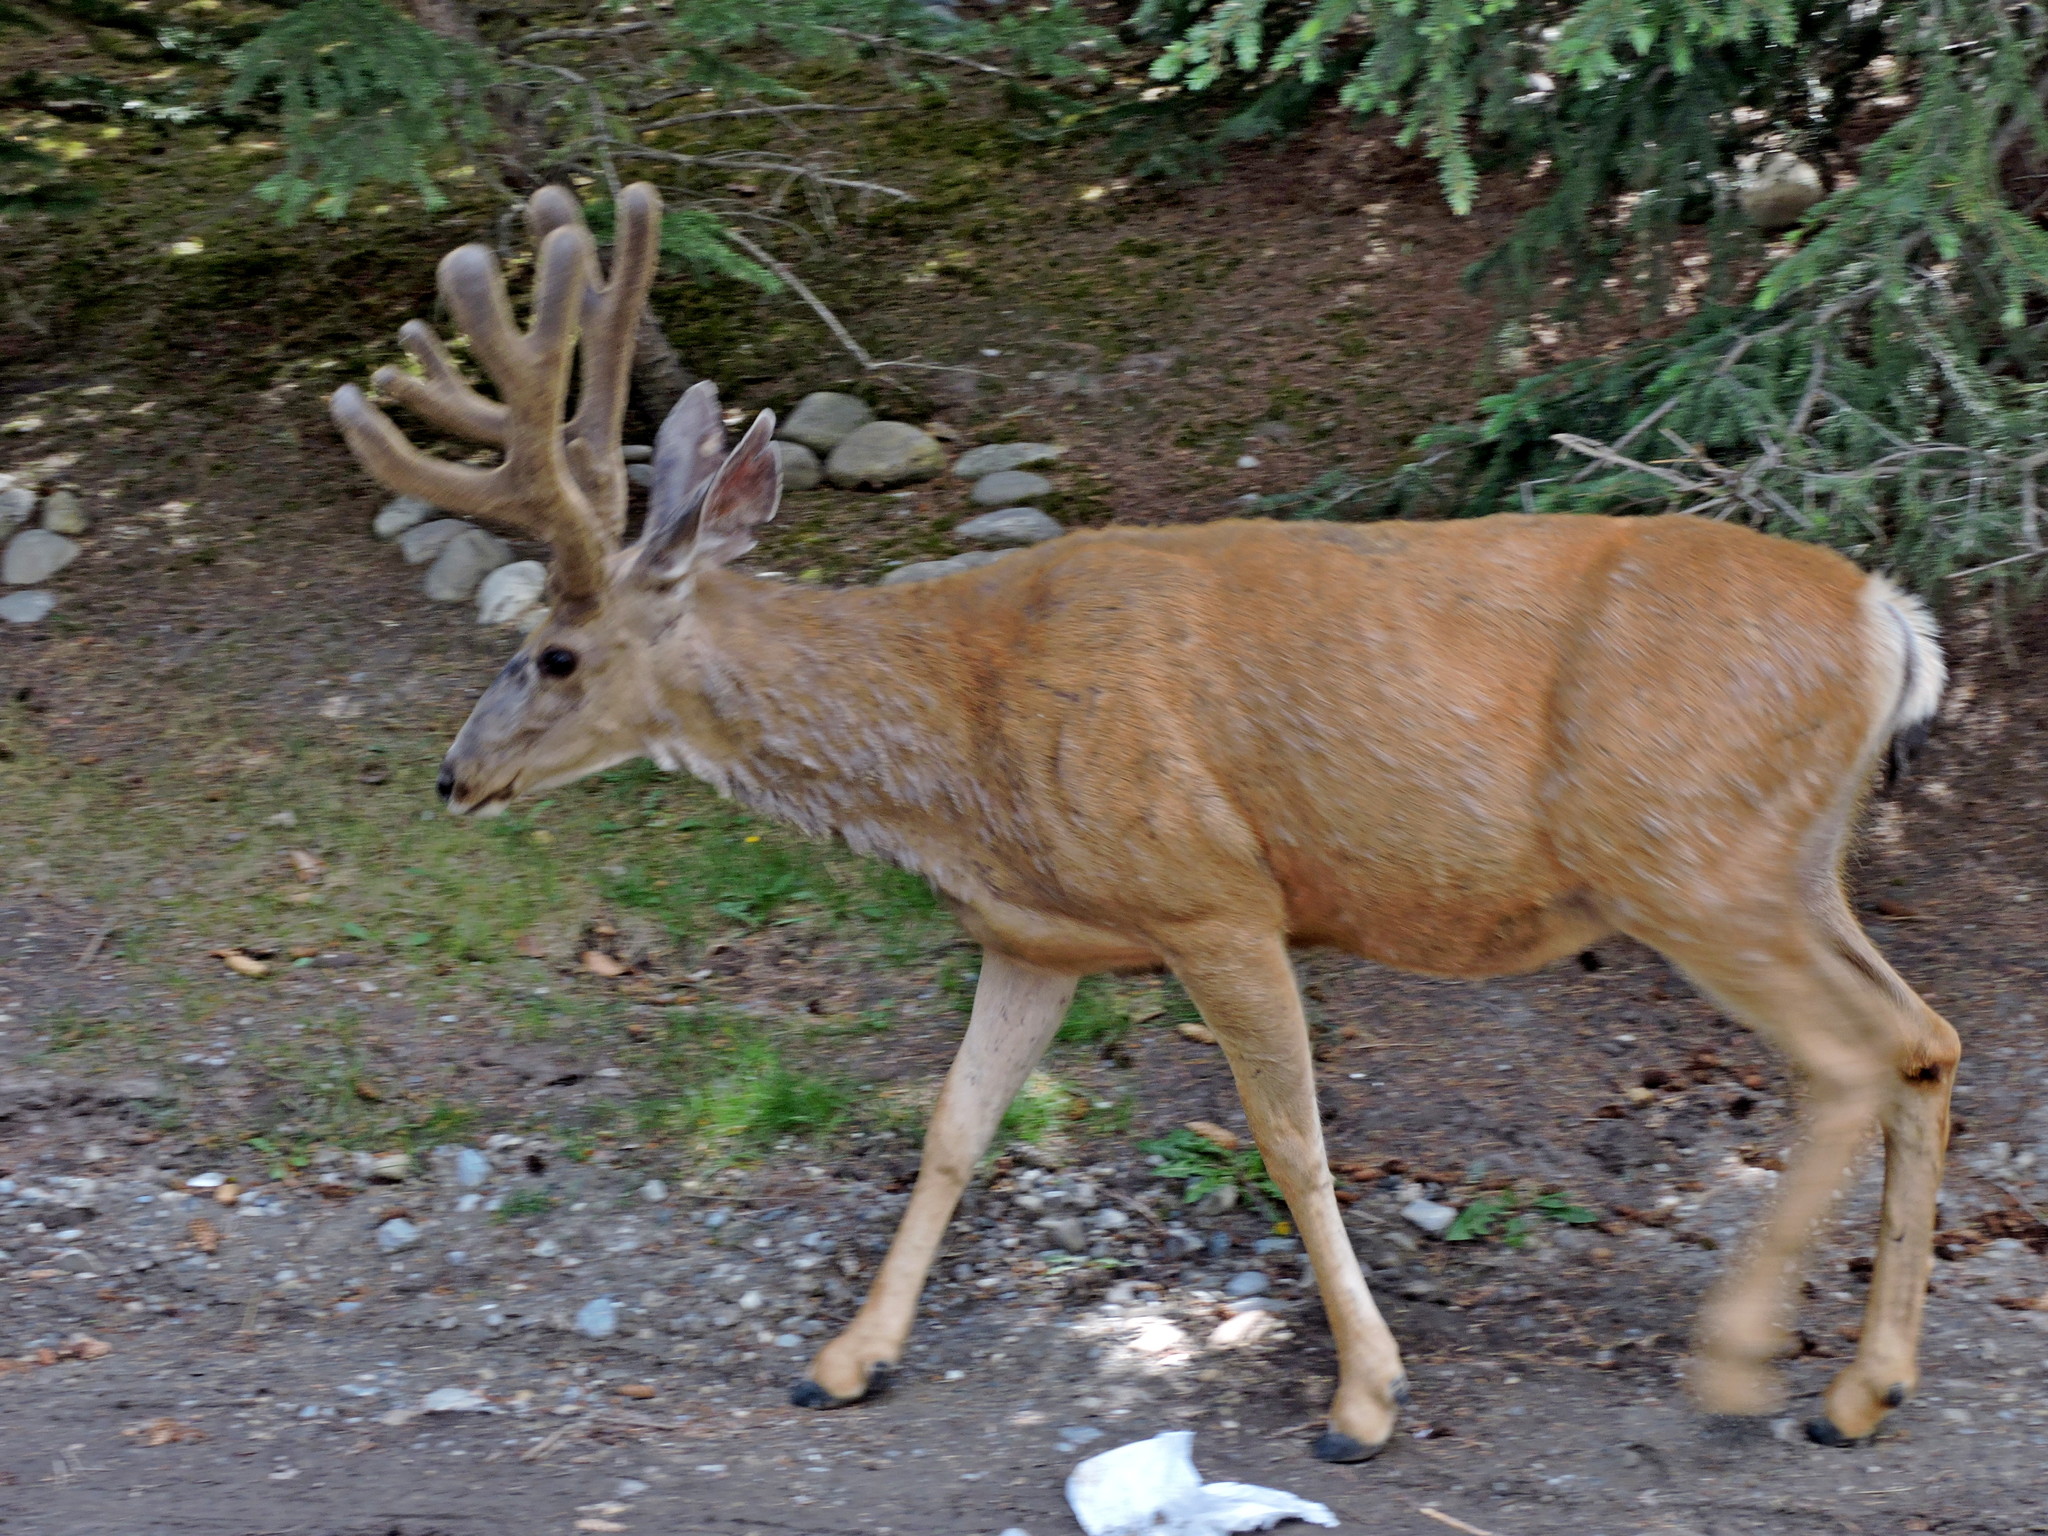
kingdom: Animalia
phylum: Chordata
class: Mammalia
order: Artiodactyla
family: Cervidae
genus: Odocoileus
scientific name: Odocoileus hemionus
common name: Mule deer
